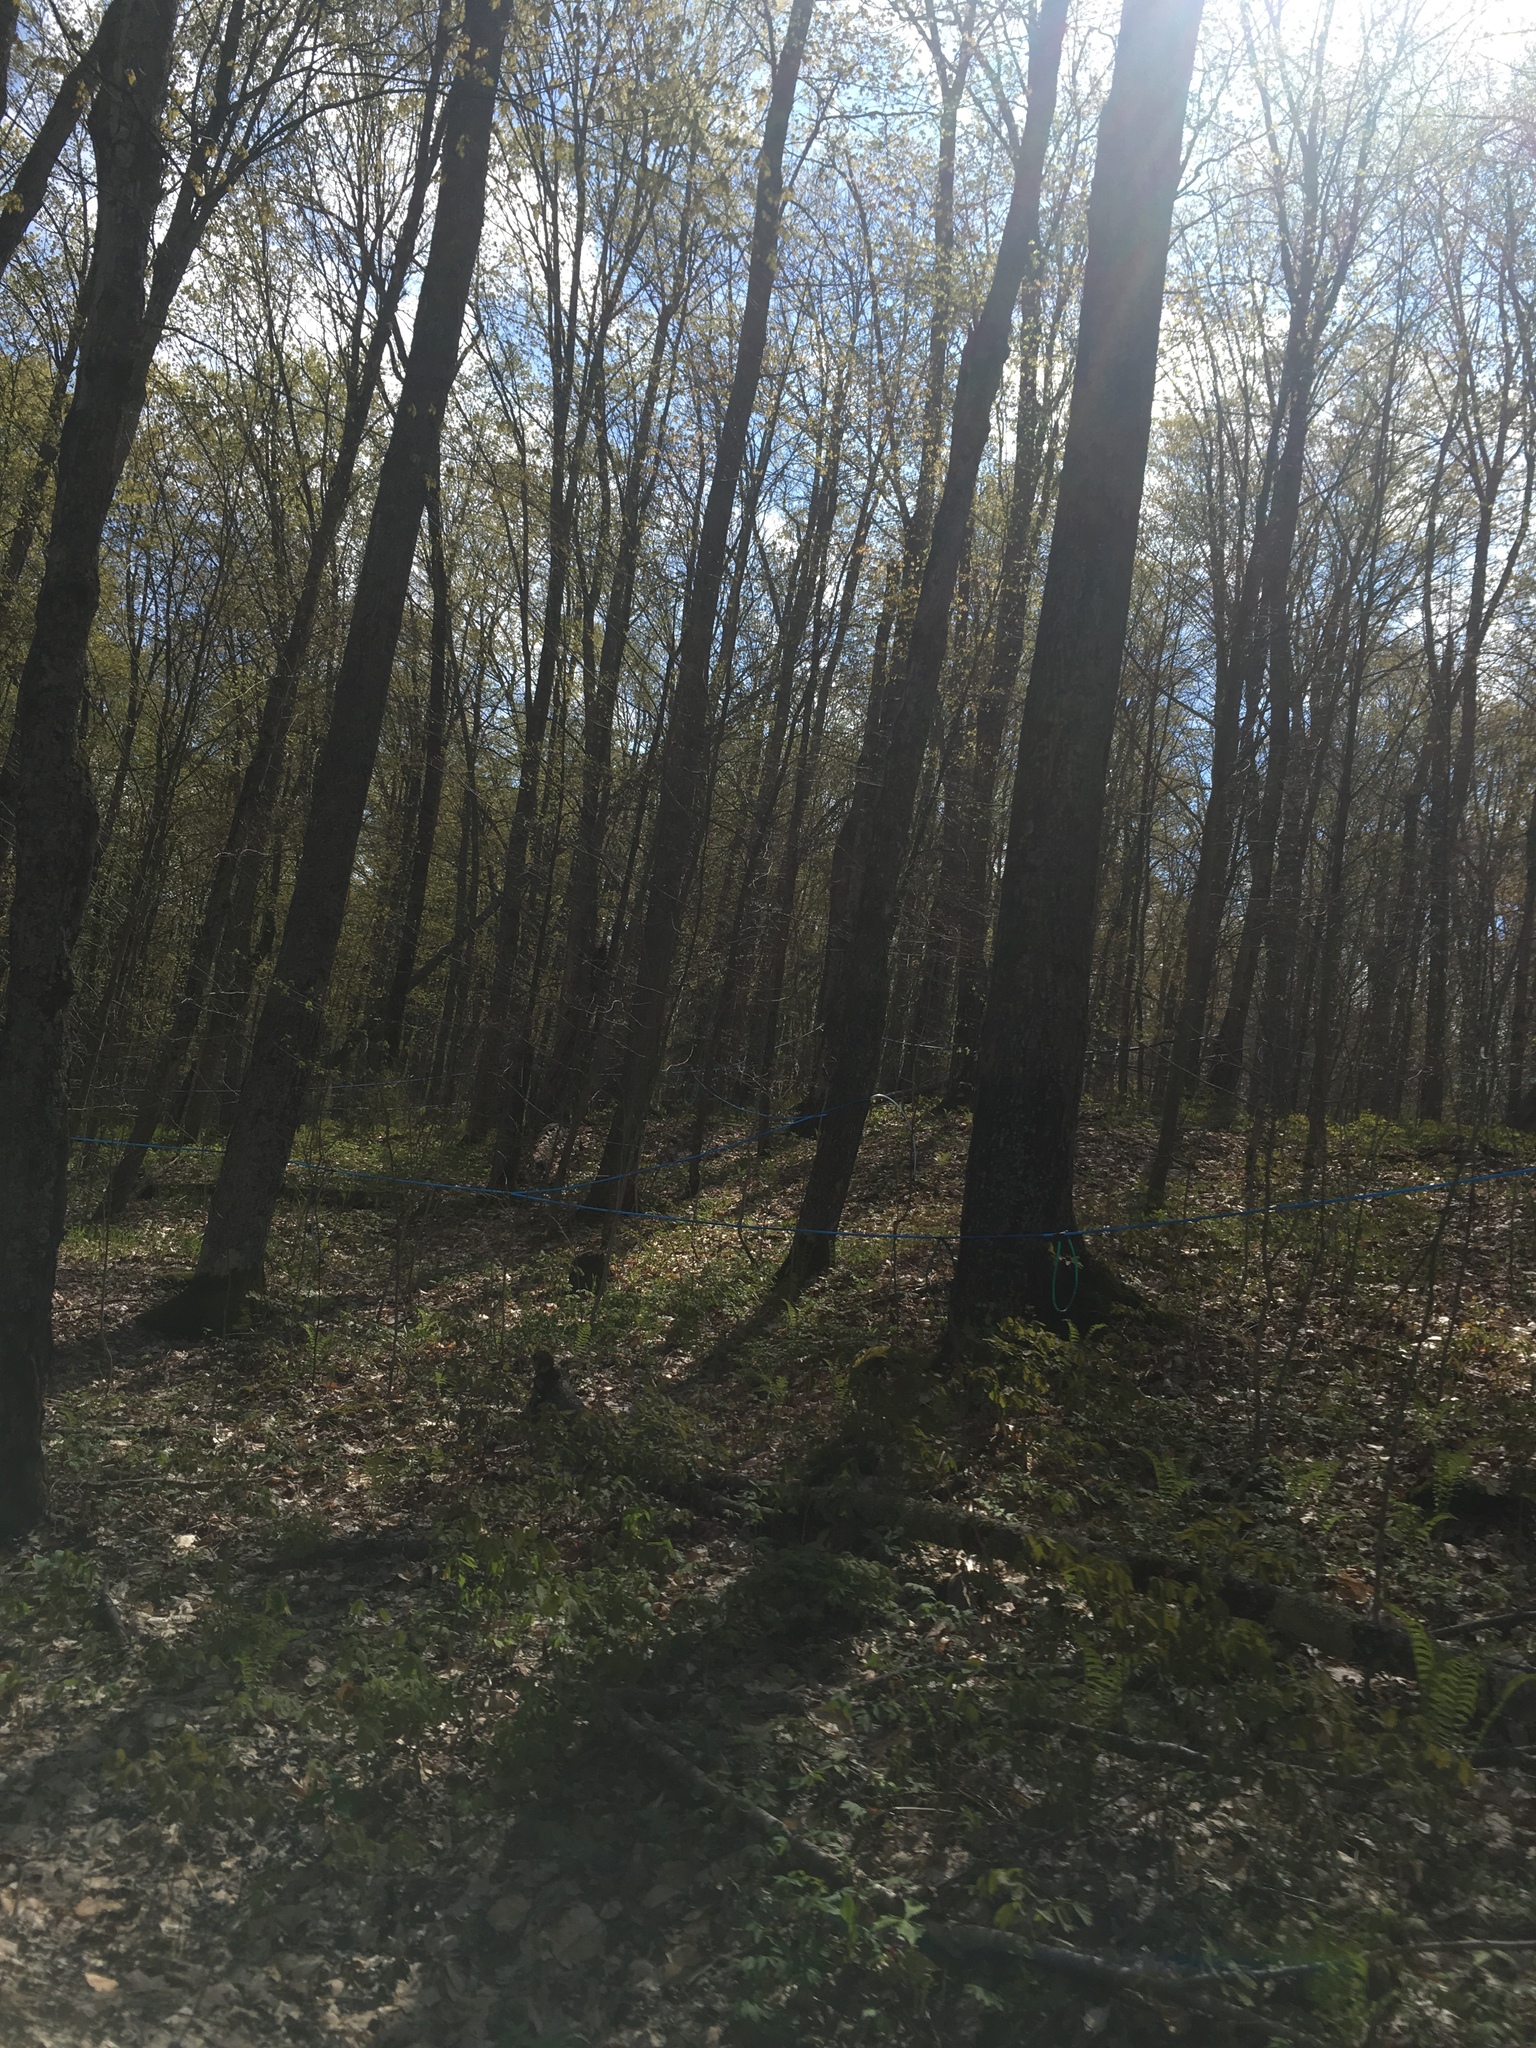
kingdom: Plantae
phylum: Tracheophyta
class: Magnoliopsida
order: Sapindales
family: Sapindaceae
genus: Acer
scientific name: Acer saccharum
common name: Sugar maple
